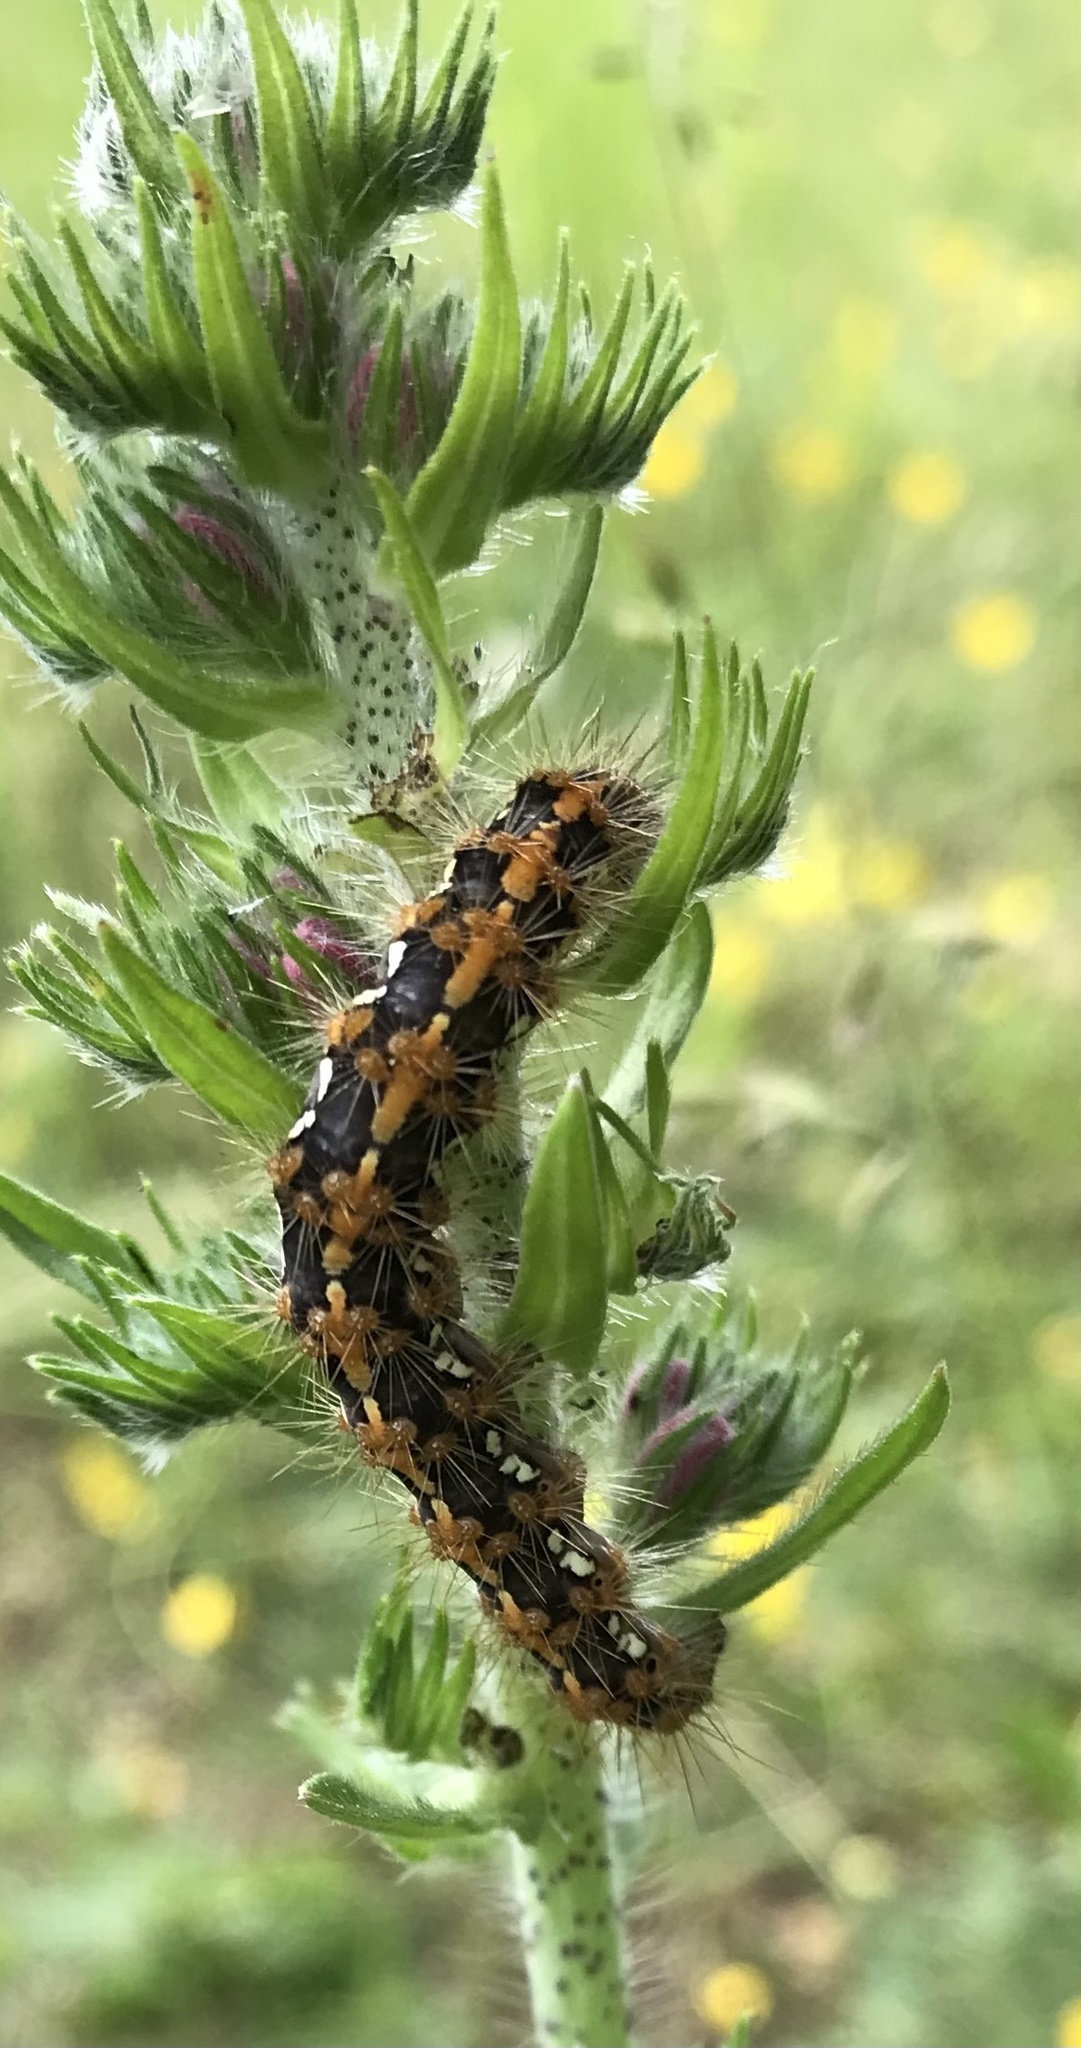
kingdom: Animalia
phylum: Arthropoda
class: Insecta
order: Lepidoptera
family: Erebidae
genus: Euplagia
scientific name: Euplagia quadripunctaria
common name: Jersey tiger
